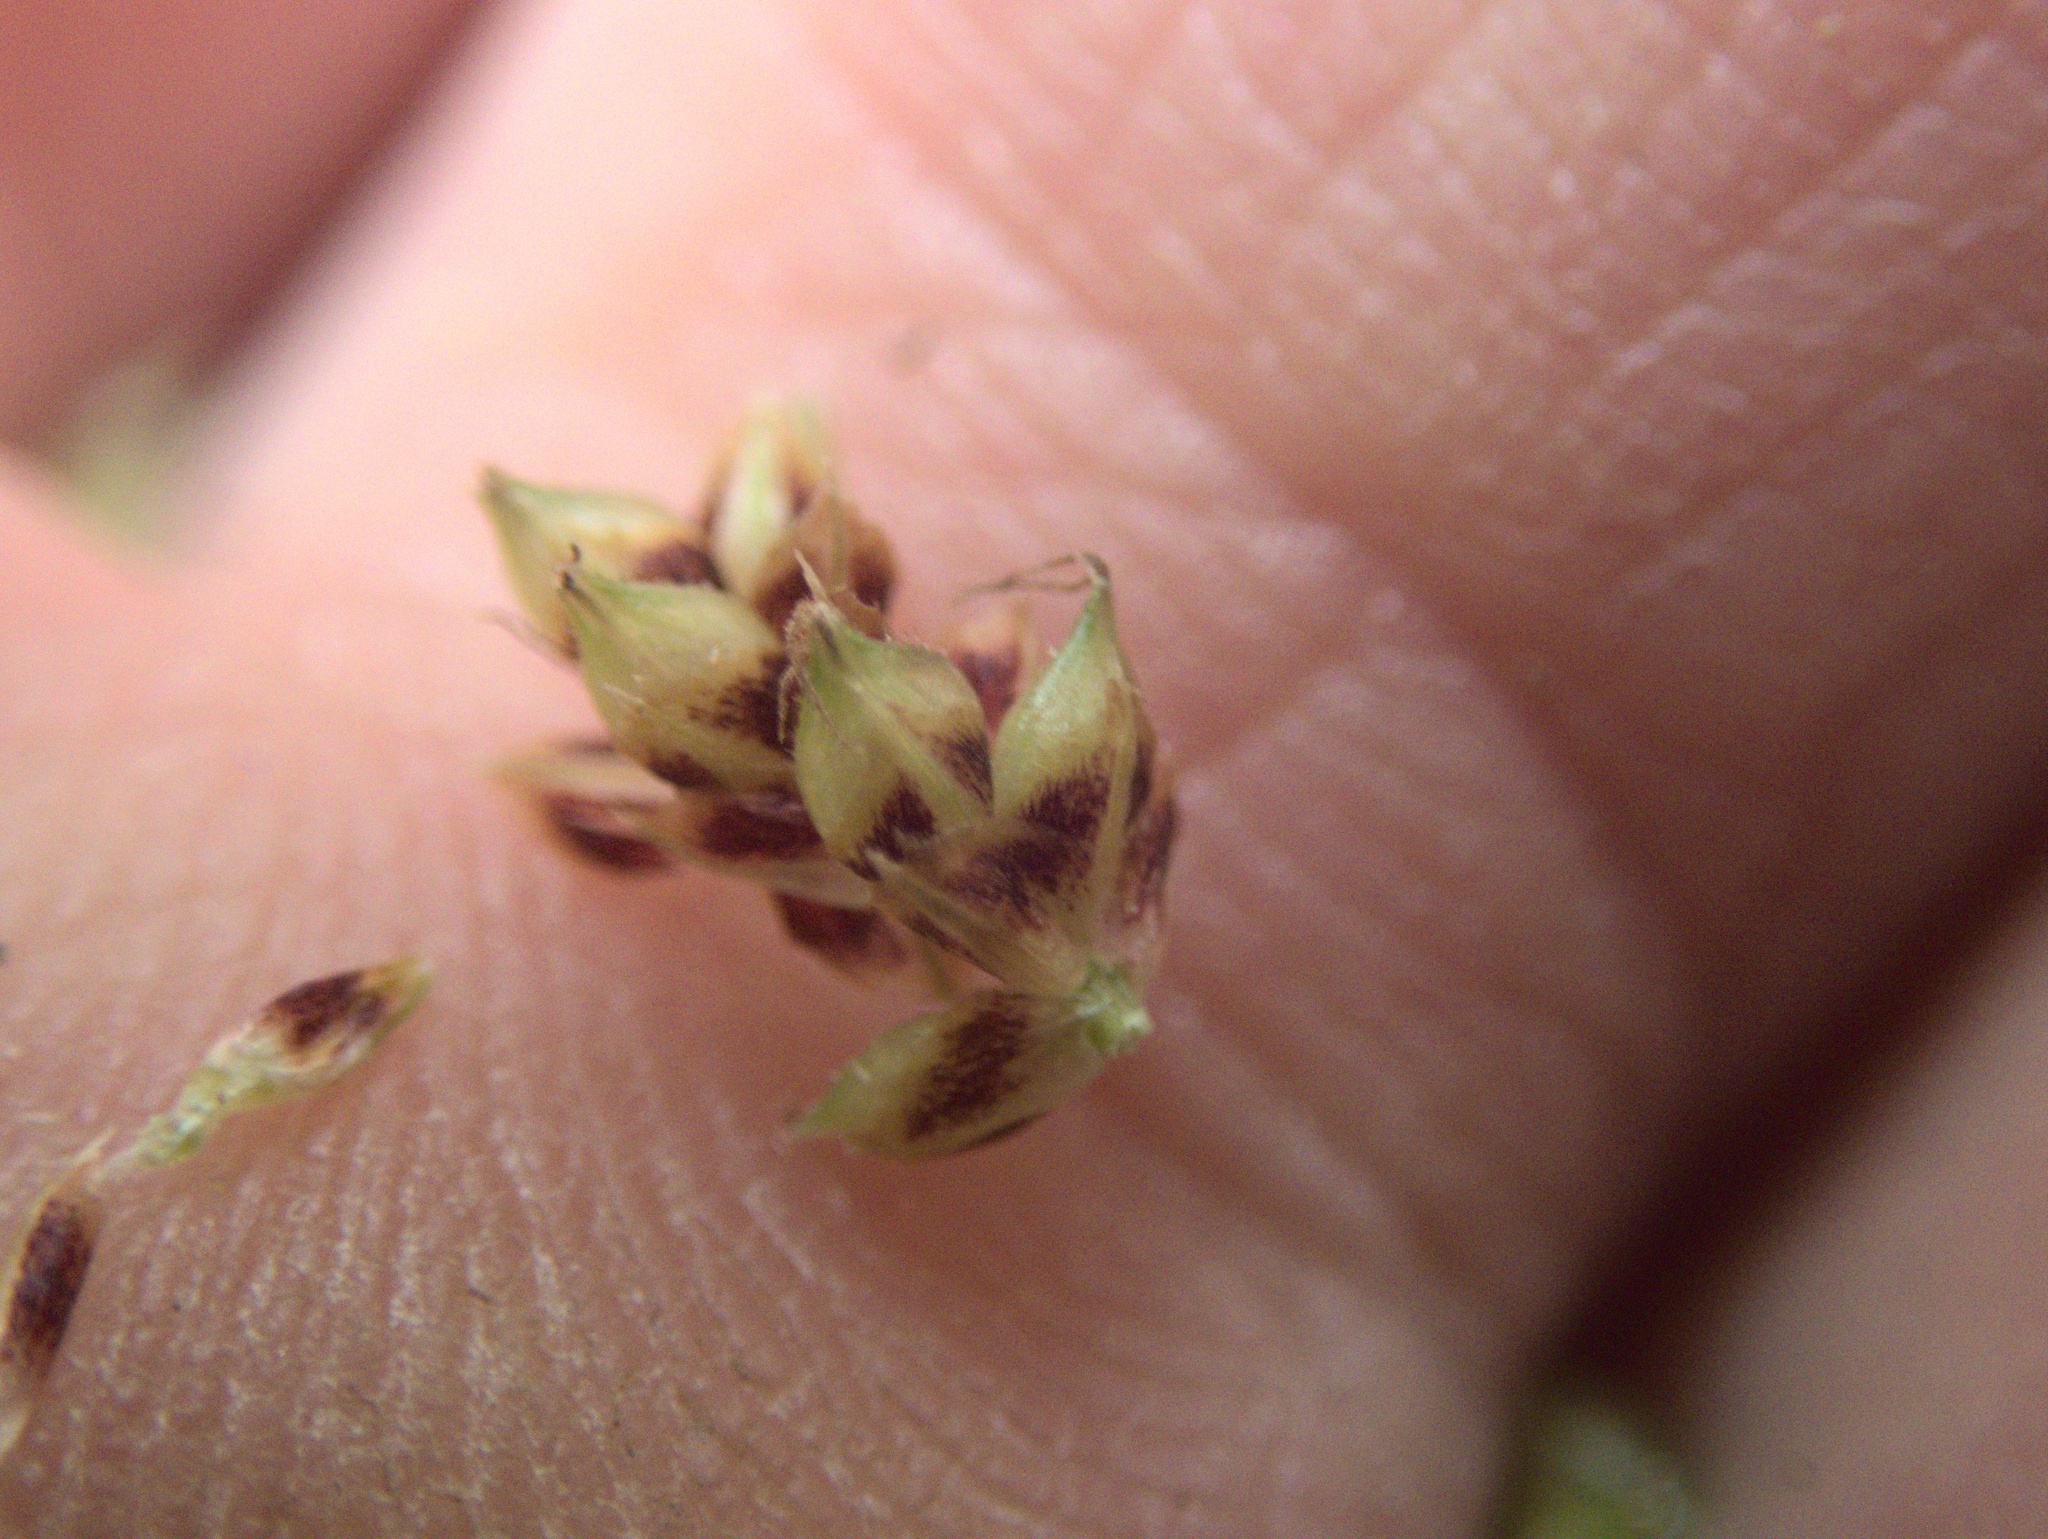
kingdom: Plantae
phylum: Tracheophyta
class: Liliopsida
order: Poales
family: Cyperaceae
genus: Carex
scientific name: Carex dissita
